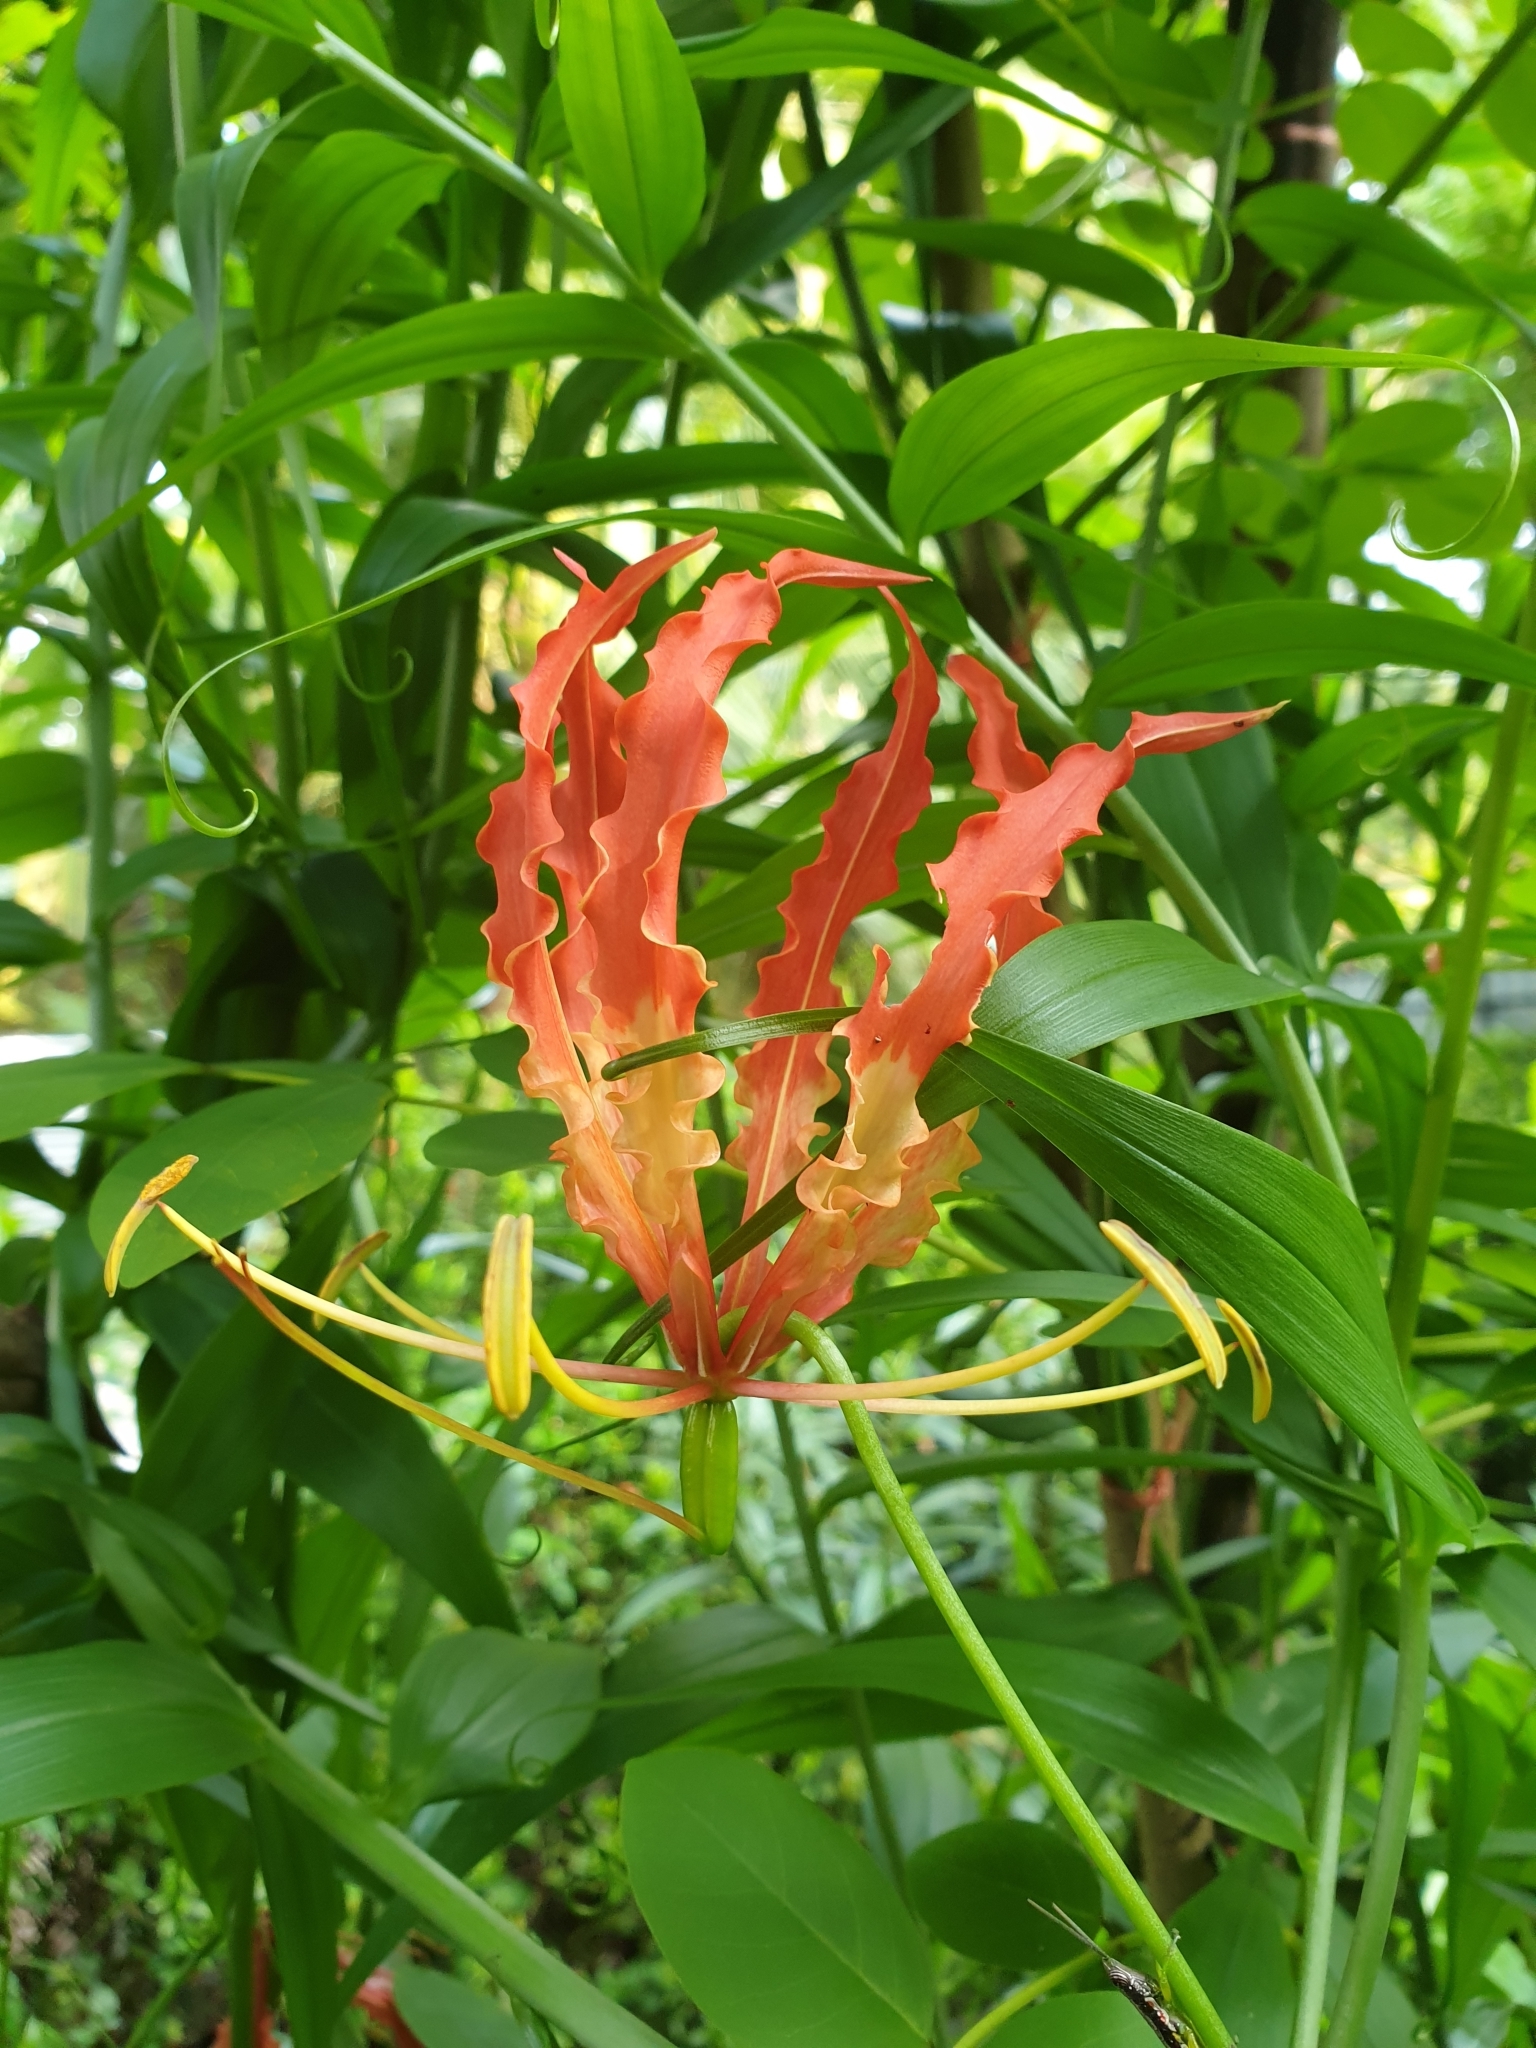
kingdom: Plantae
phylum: Tracheophyta
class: Liliopsida
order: Liliales
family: Colchicaceae
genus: Gloriosa
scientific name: Gloriosa superba
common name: Flame lily
